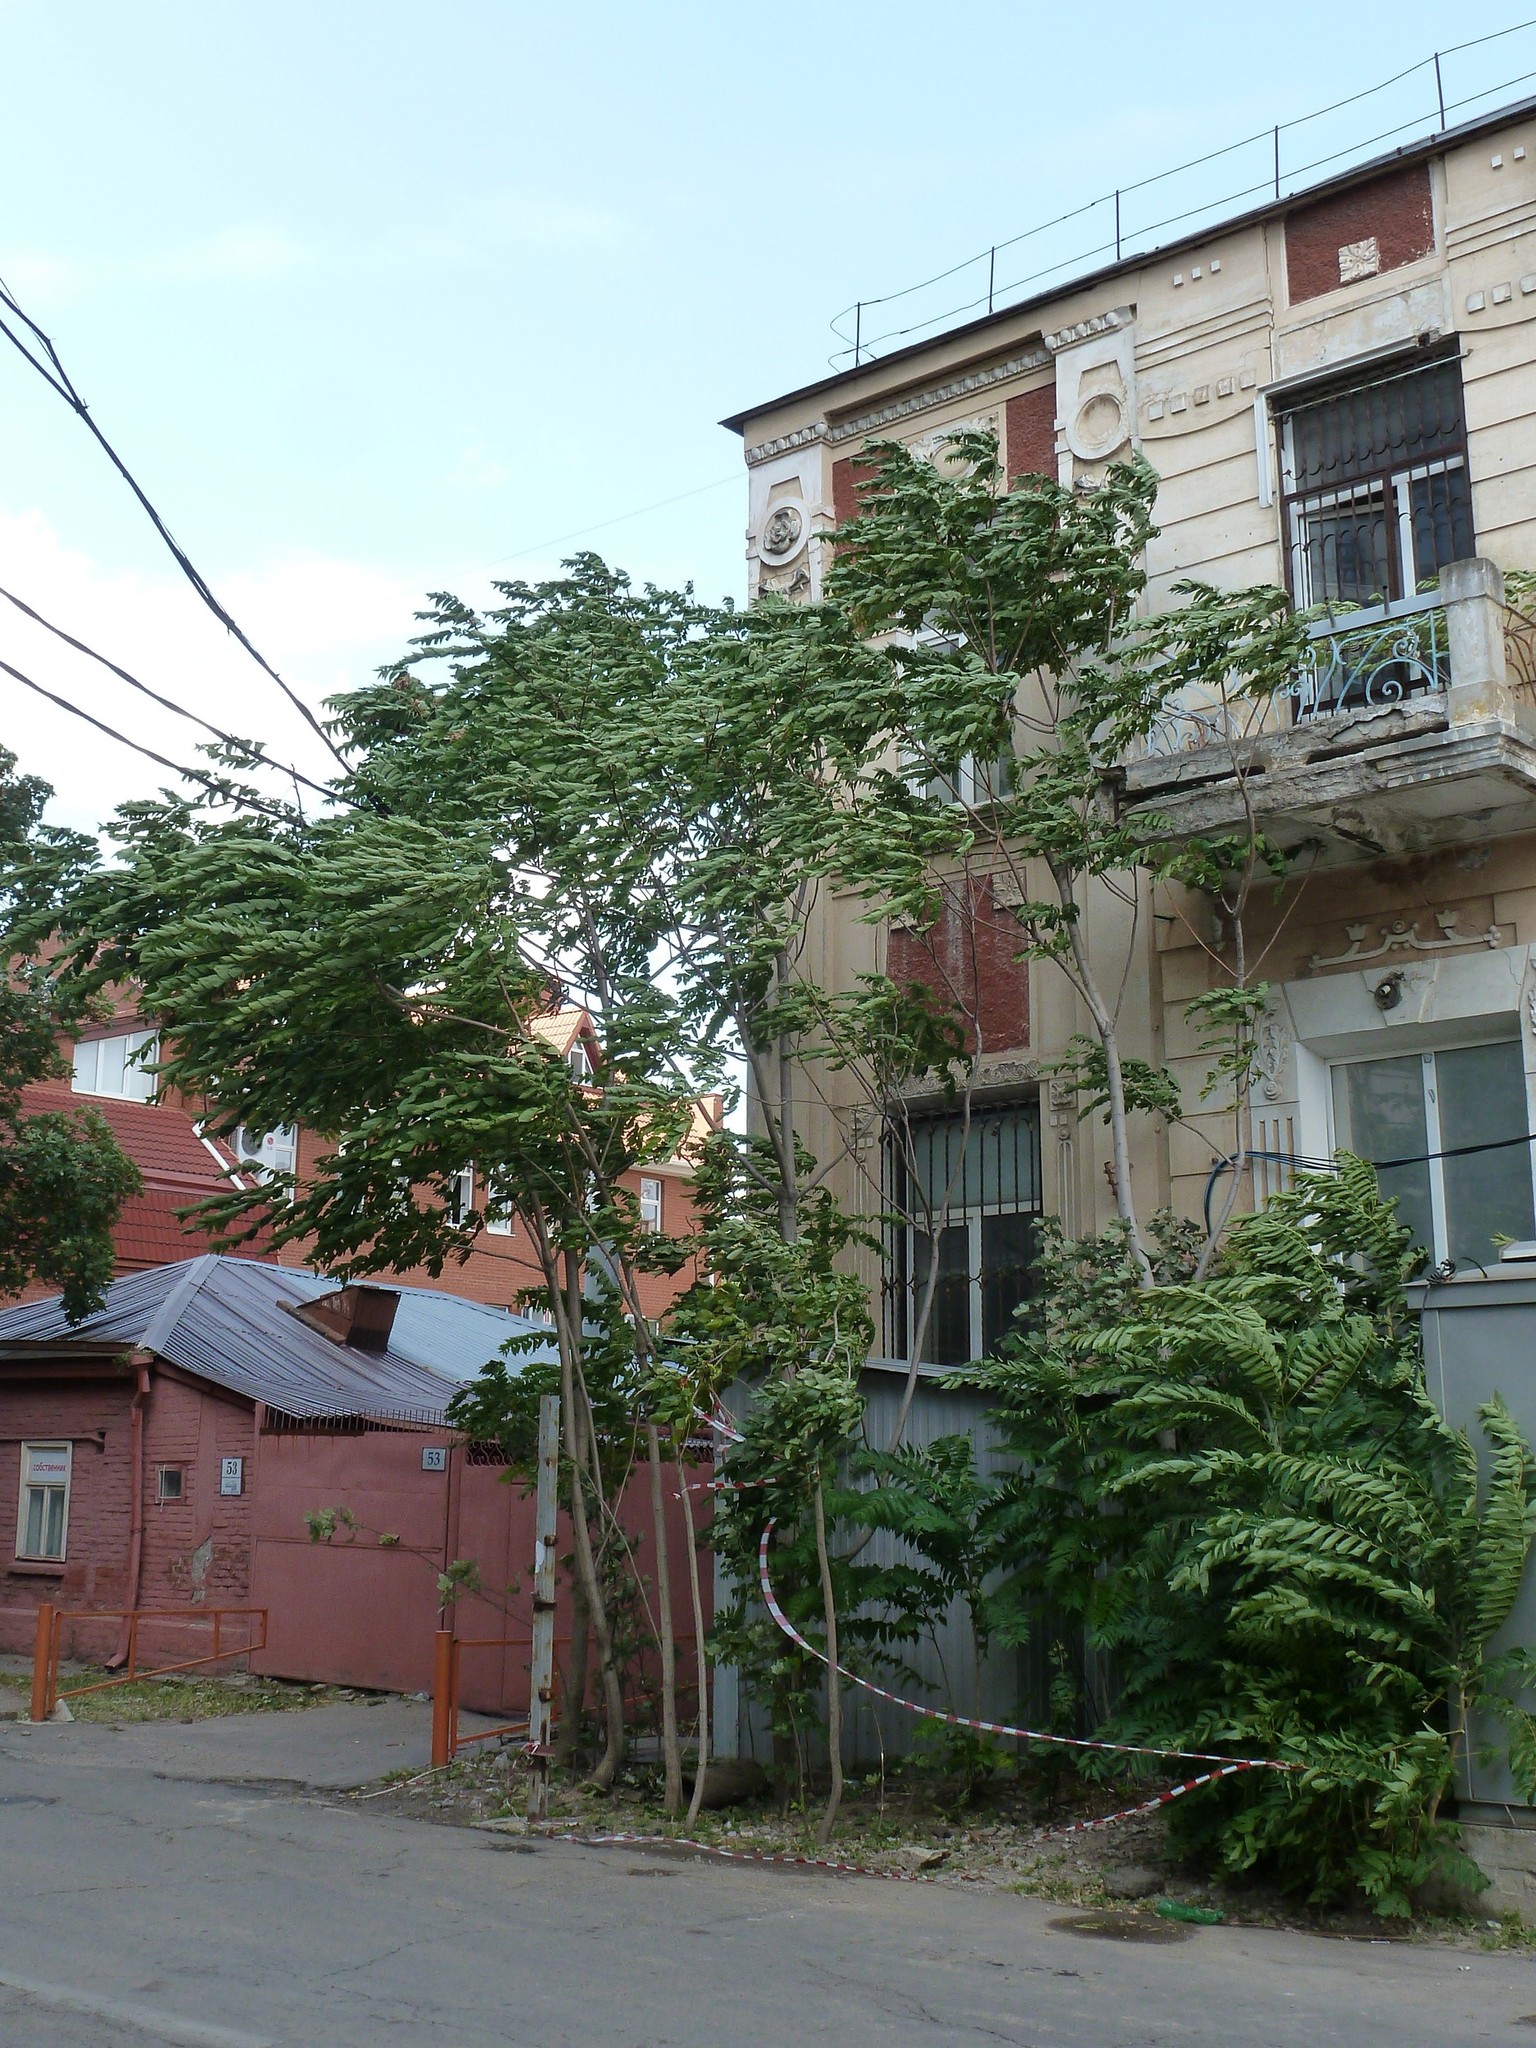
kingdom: Plantae
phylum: Tracheophyta
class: Magnoliopsida
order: Sapindales
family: Simaroubaceae
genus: Ailanthus
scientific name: Ailanthus altissima
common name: Tree-of-heaven
